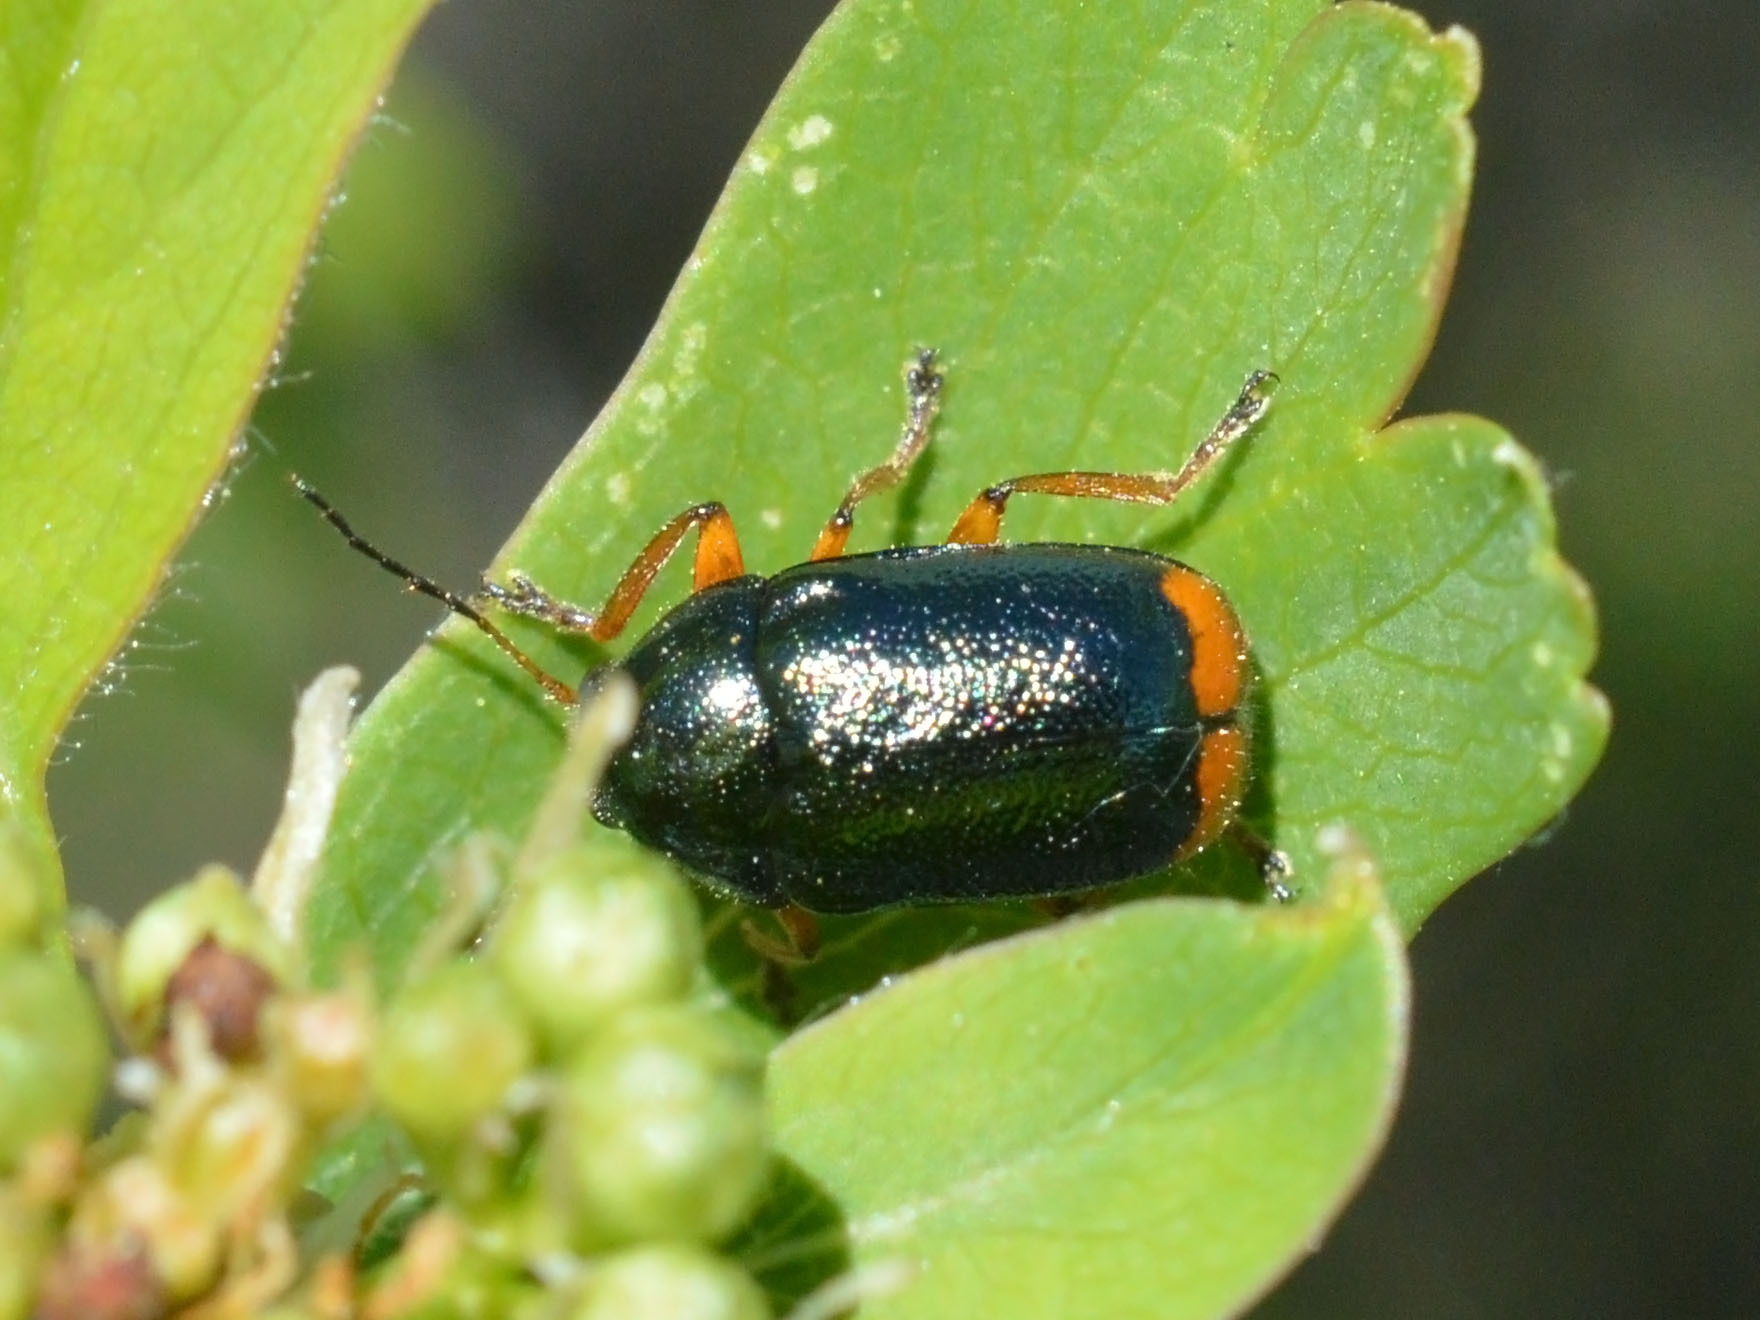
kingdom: Animalia
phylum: Arthropoda
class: Insecta
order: Coleoptera
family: Chrysomelidae
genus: Cryptocephalus
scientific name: Cryptocephalus schaefferi
